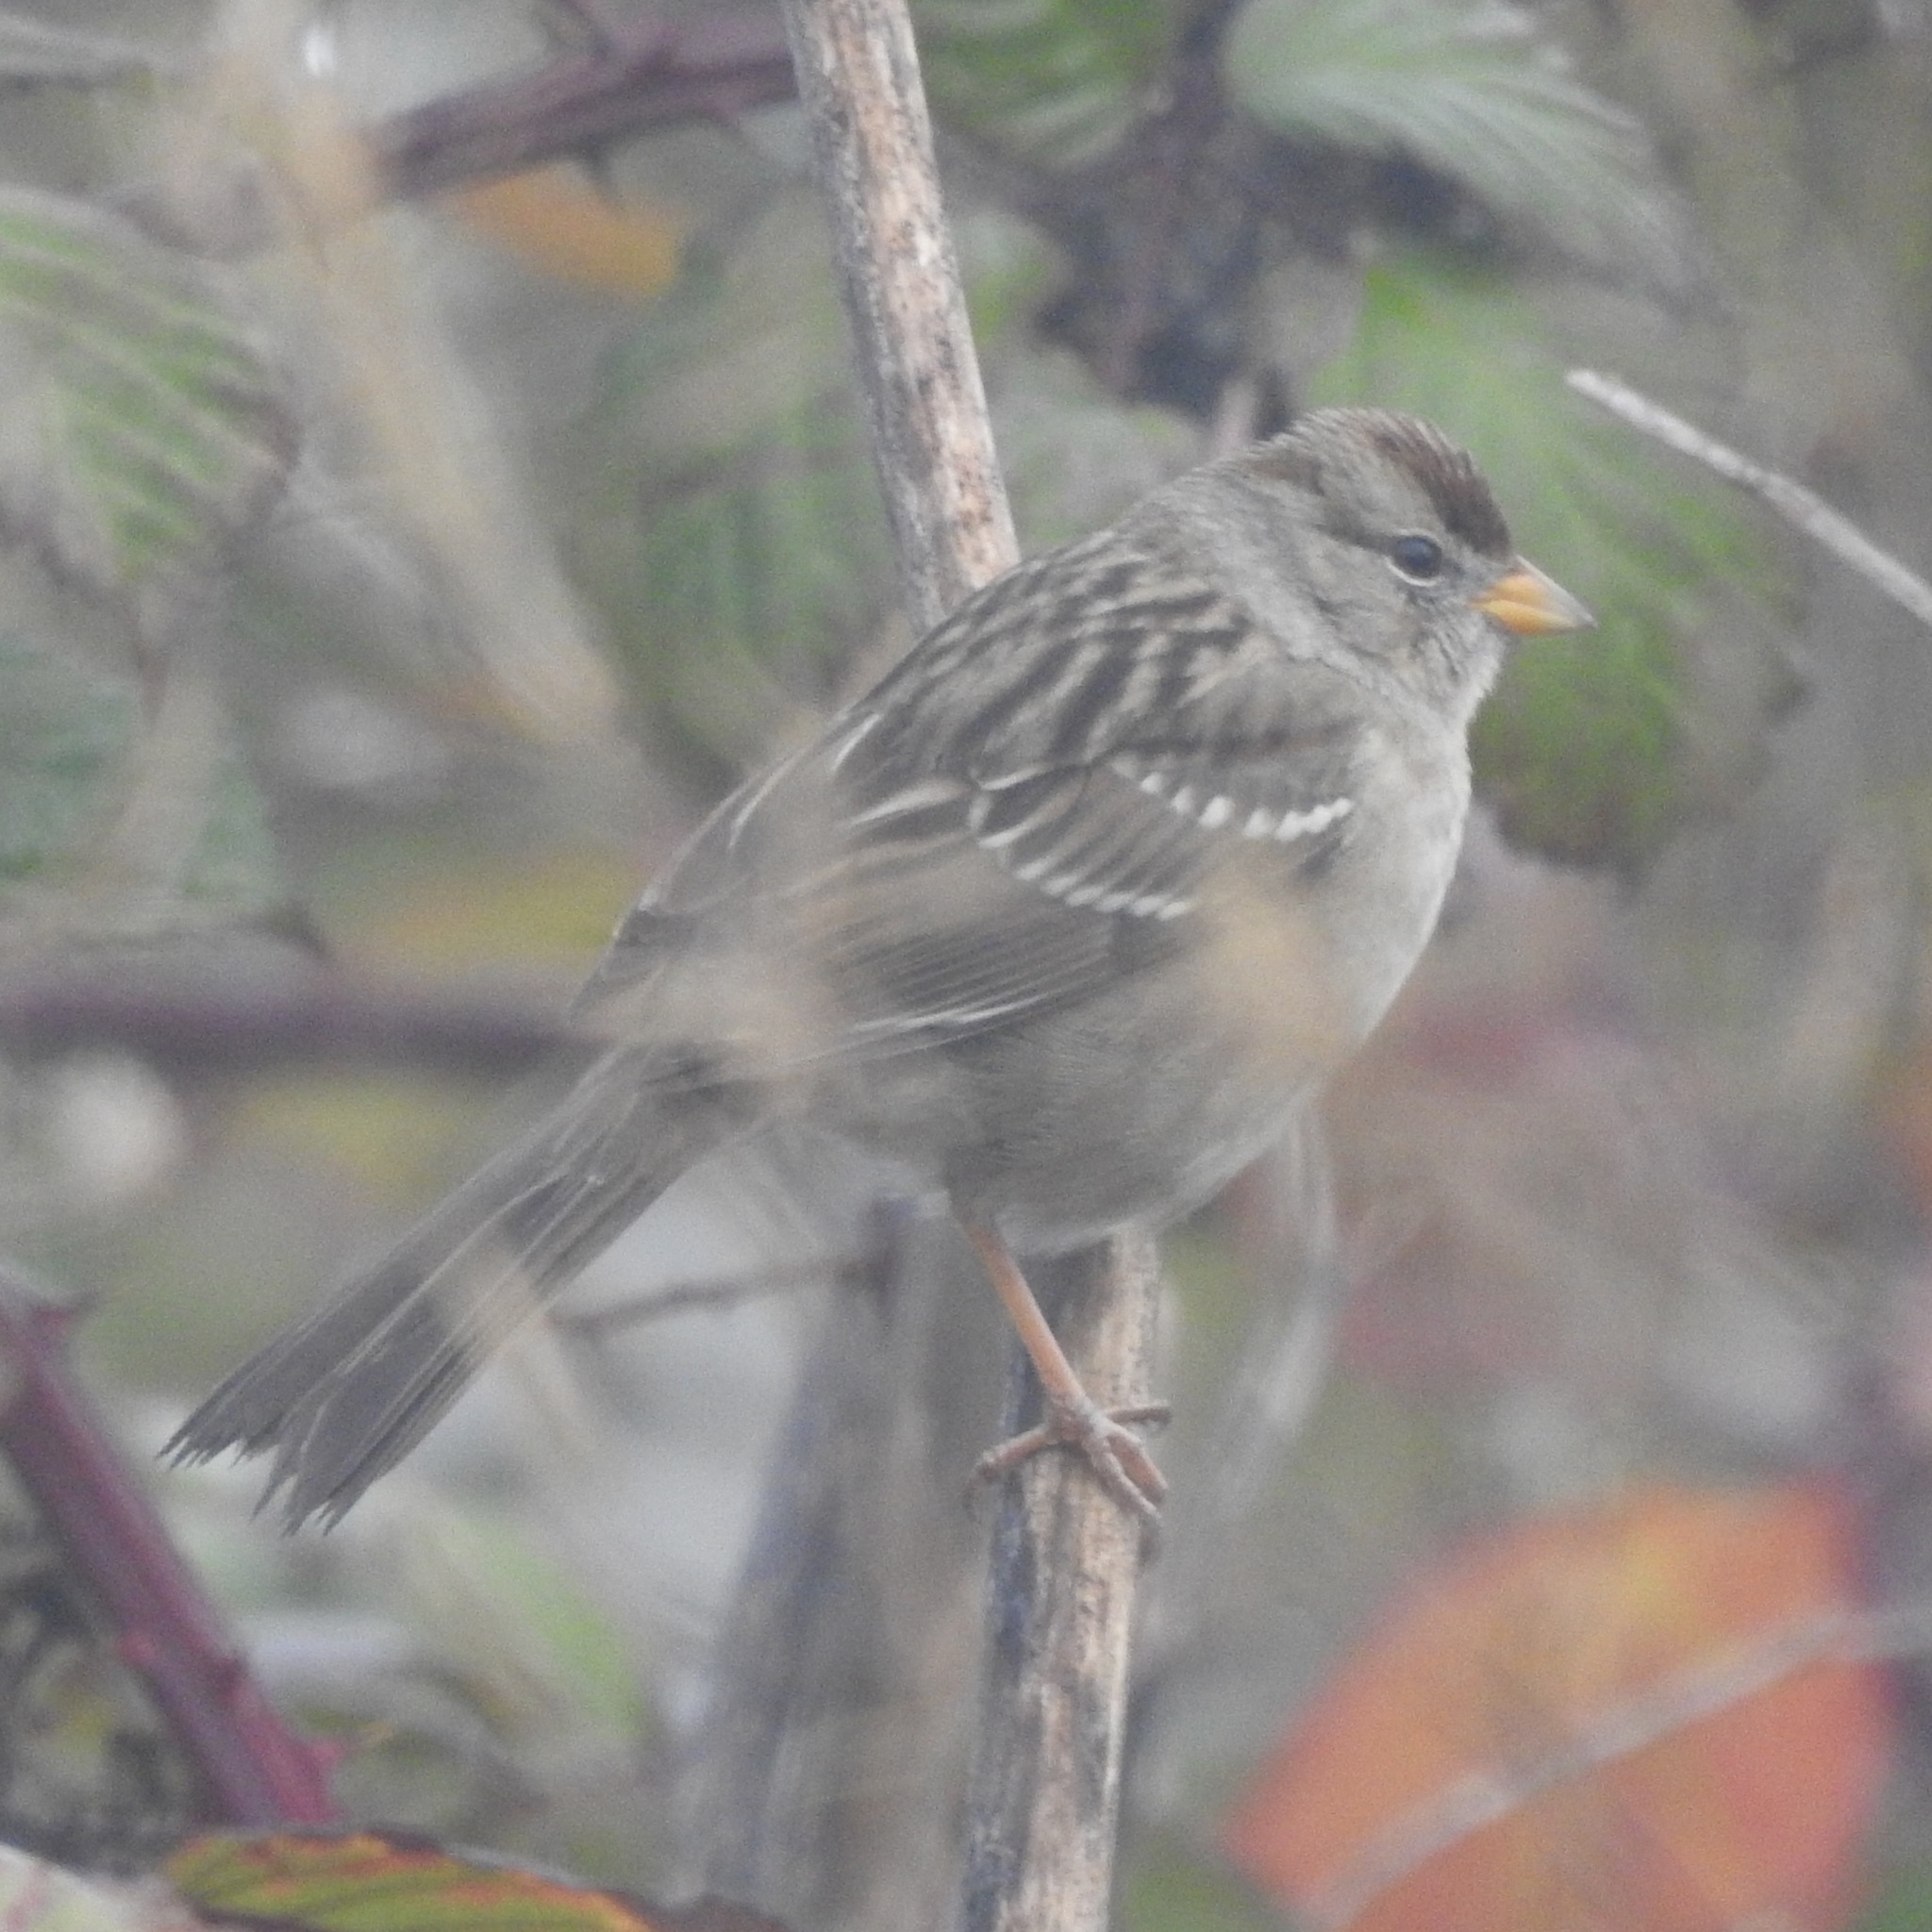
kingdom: Animalia
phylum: Chordata
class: Aves
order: Passeriformes
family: Passerellidae
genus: Zonotrichia
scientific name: Zonotrichia leucophrys
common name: White-crowned sparrow
